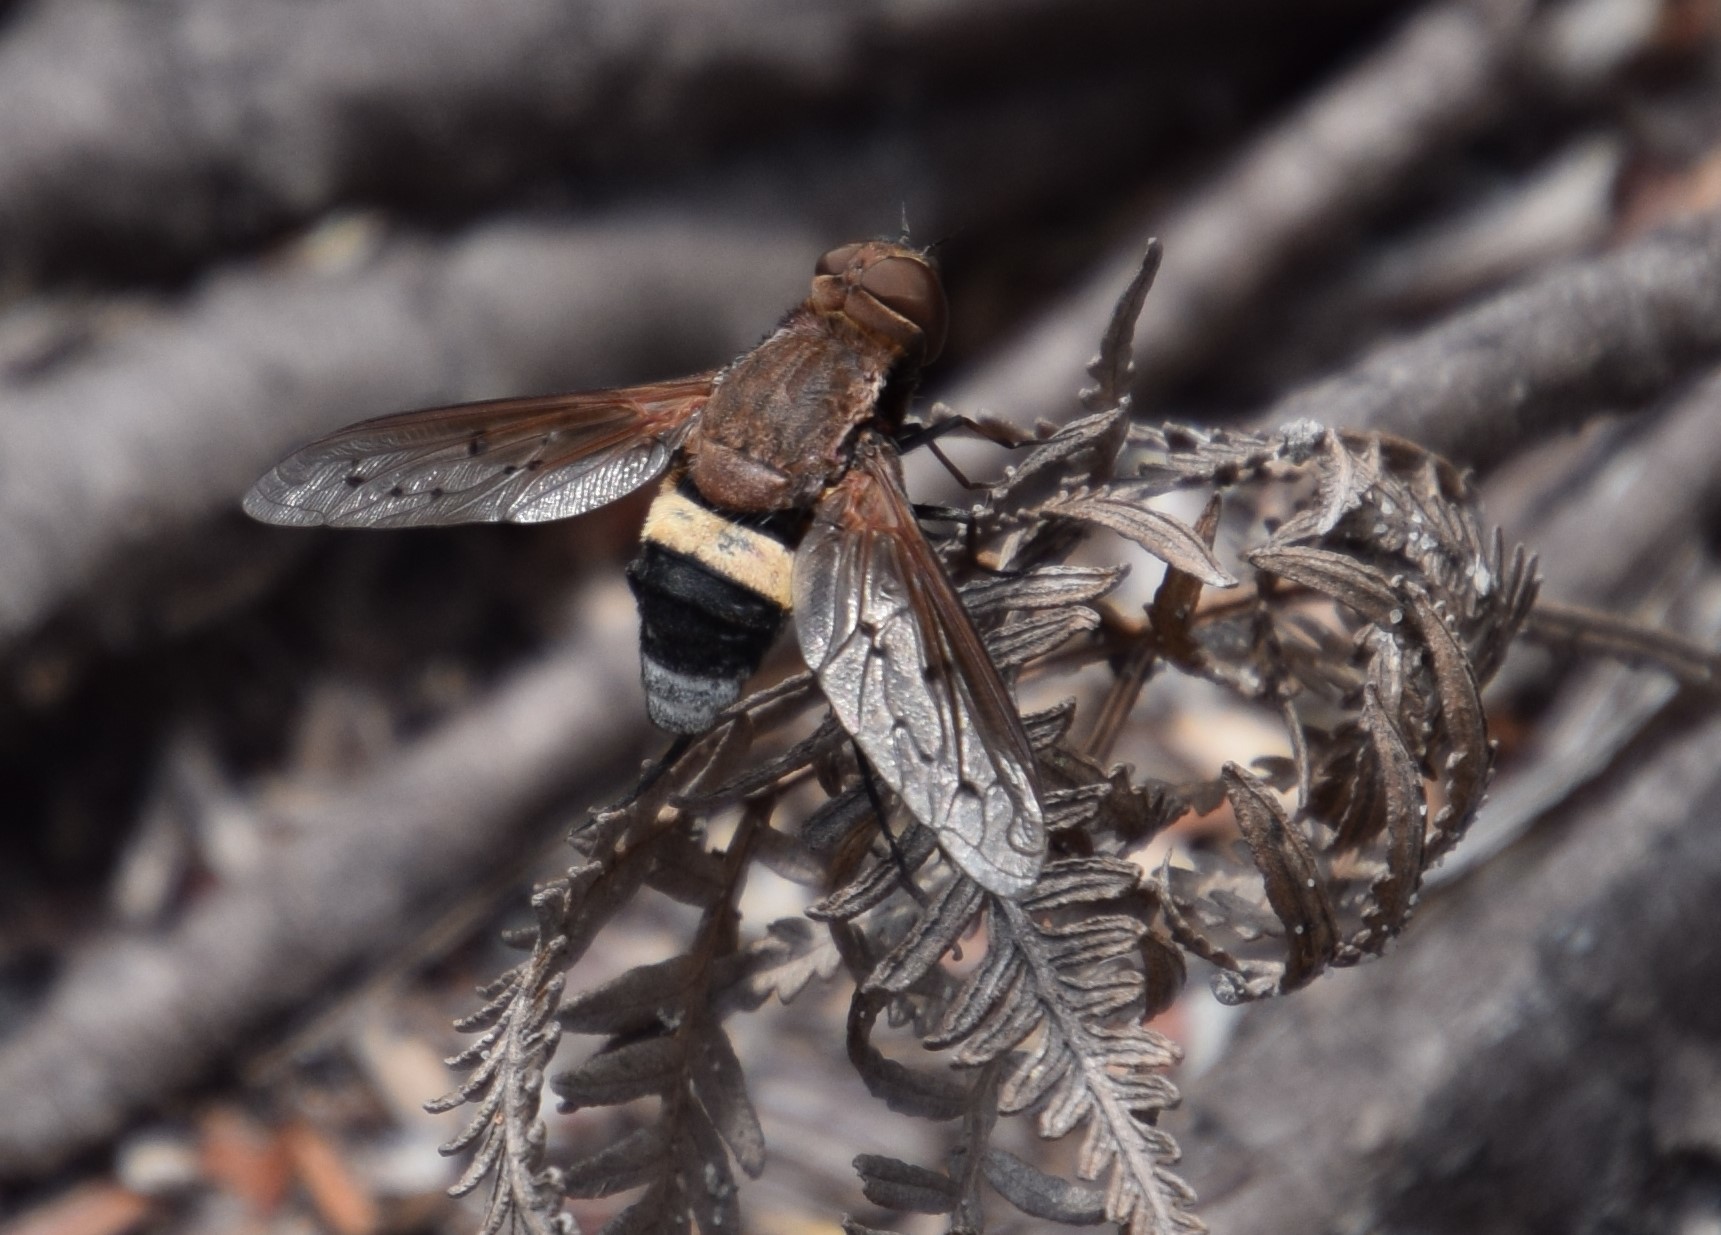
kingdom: Animalia
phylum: Arthropoda
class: Insecta
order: Diptera
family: Bombyliidae
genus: Ligyra
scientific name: Ligyra punctipennis
